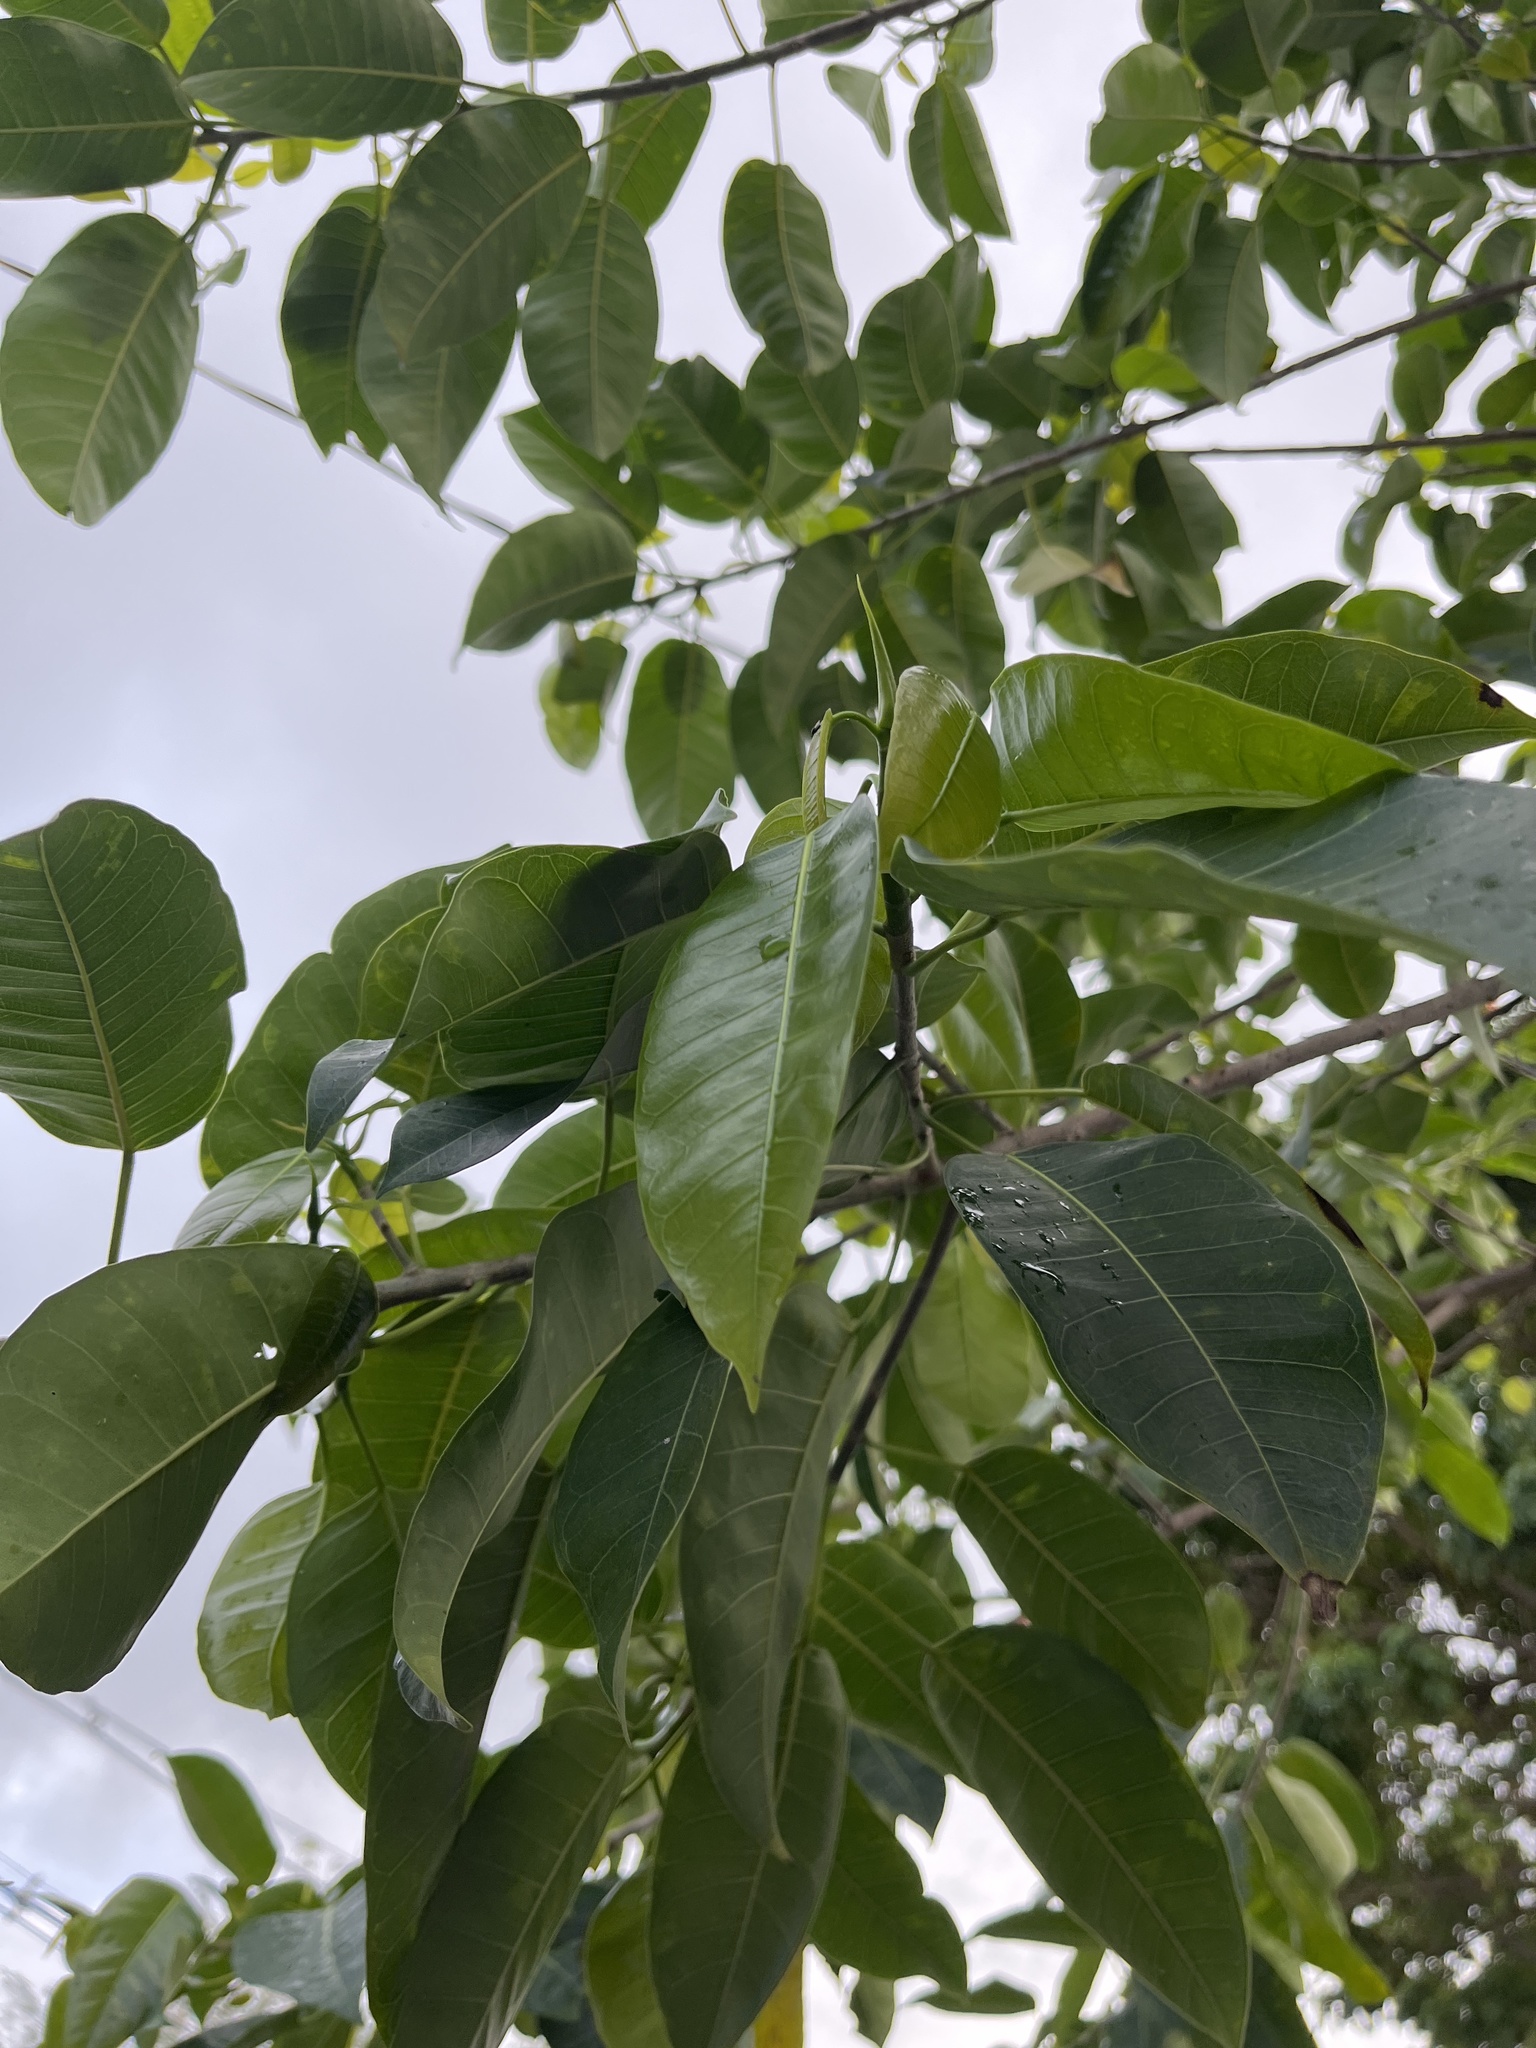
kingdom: Plantae
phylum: Tracheophyta
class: Magnoliopsida
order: Rosales
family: Moraceae
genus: Ficus
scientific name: Ficus citrifolia
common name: Strangler fig
